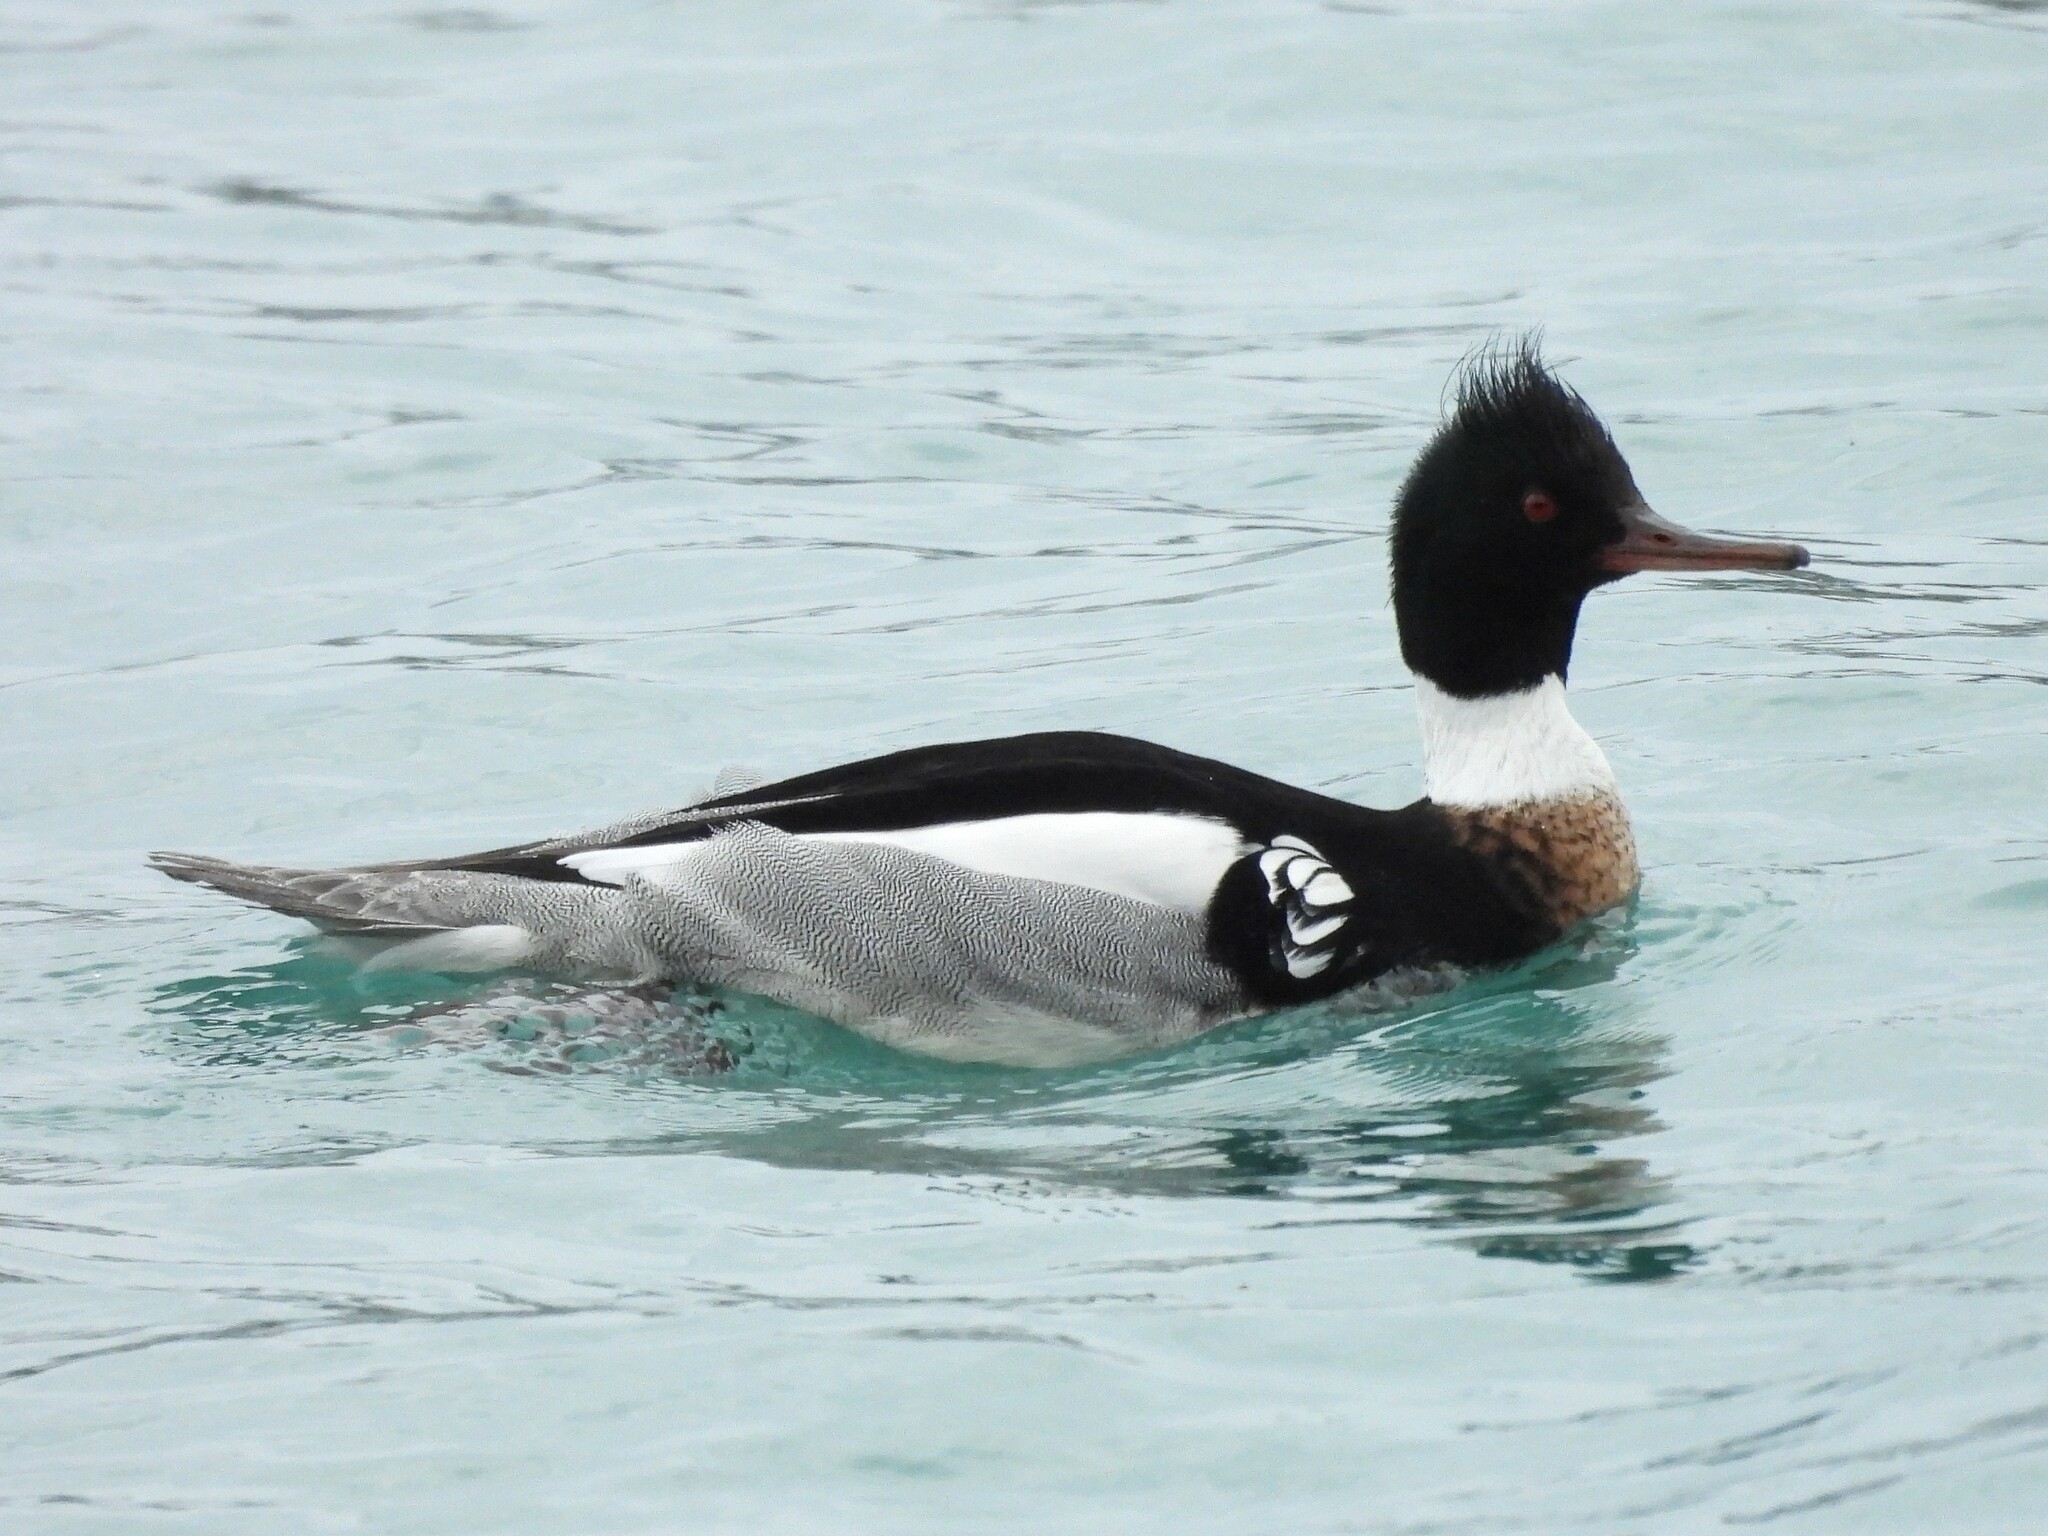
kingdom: Animalia
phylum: Chordata
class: Aves
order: Anseriformes
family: Anatidae
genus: Mergus
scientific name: Mergus serrator
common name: Red-breasted merganser
